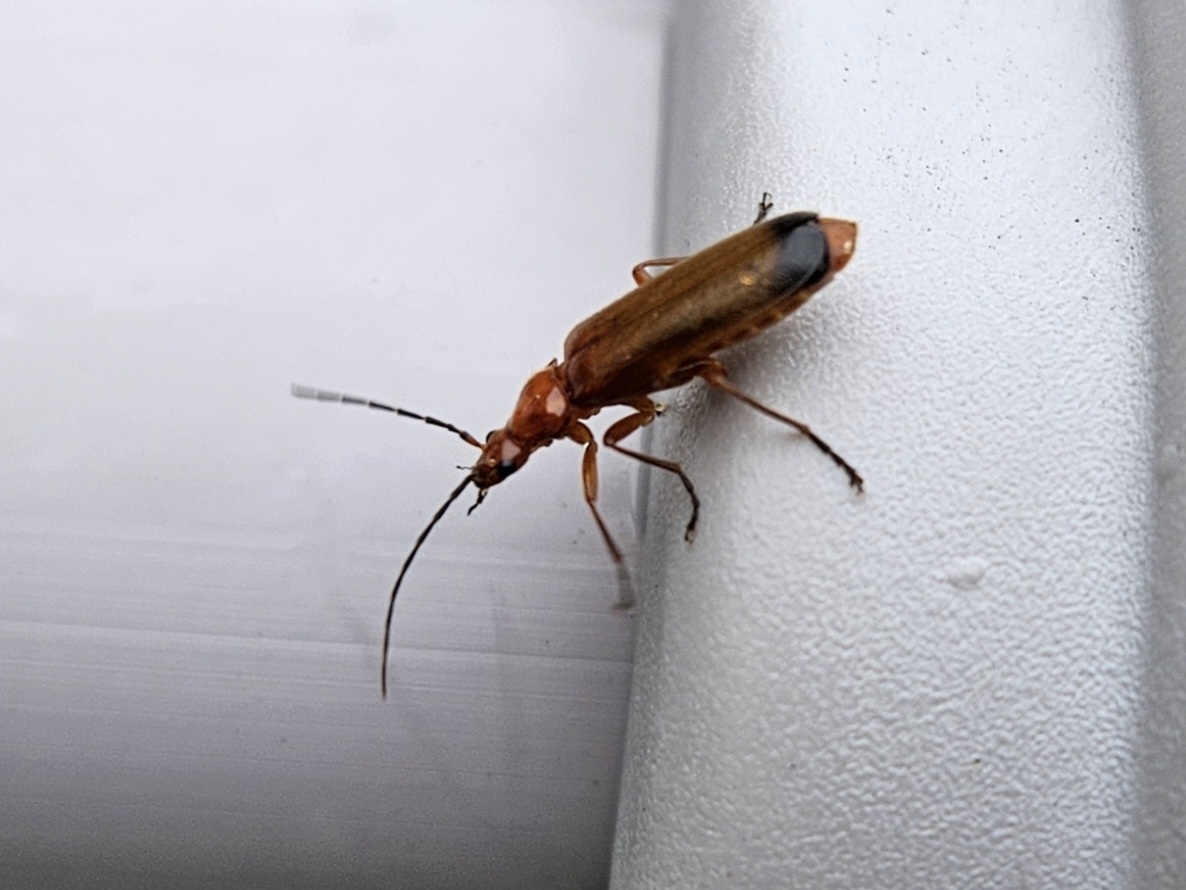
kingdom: Animalia
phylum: Arthropoda
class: Insecta
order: Coleoptera
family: Cantharidae
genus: Rhagonycha
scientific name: Rhagonycha fulva
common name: Common red soldier beetle
